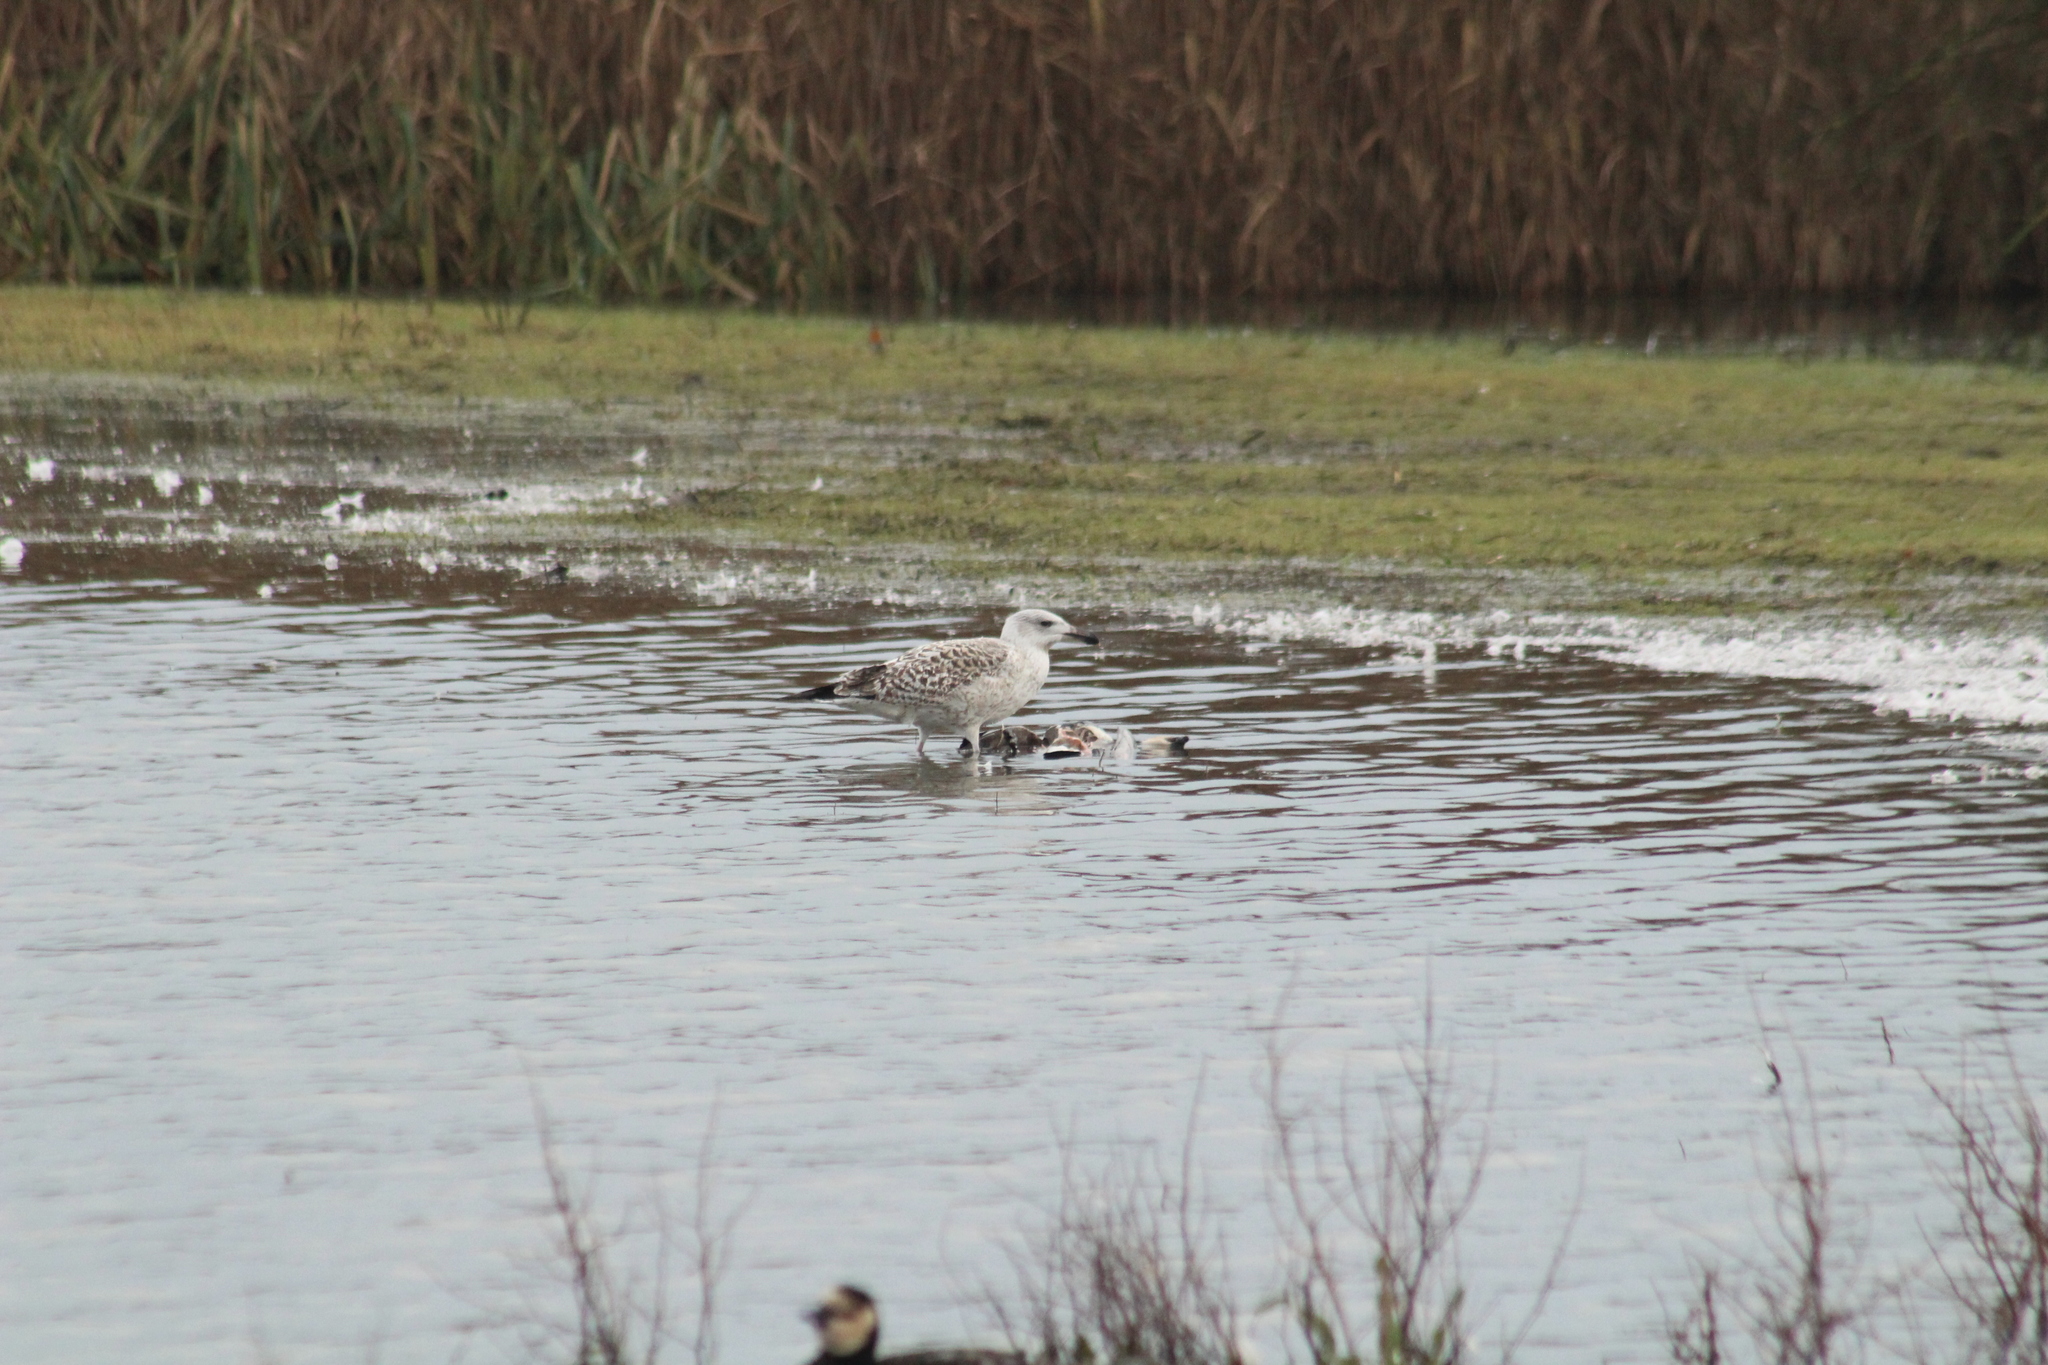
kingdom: Animalia
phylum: Chordata
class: Aves
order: Charadriiformes
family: Laridae
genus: Larus
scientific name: Larus argentatus
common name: Herring gull
